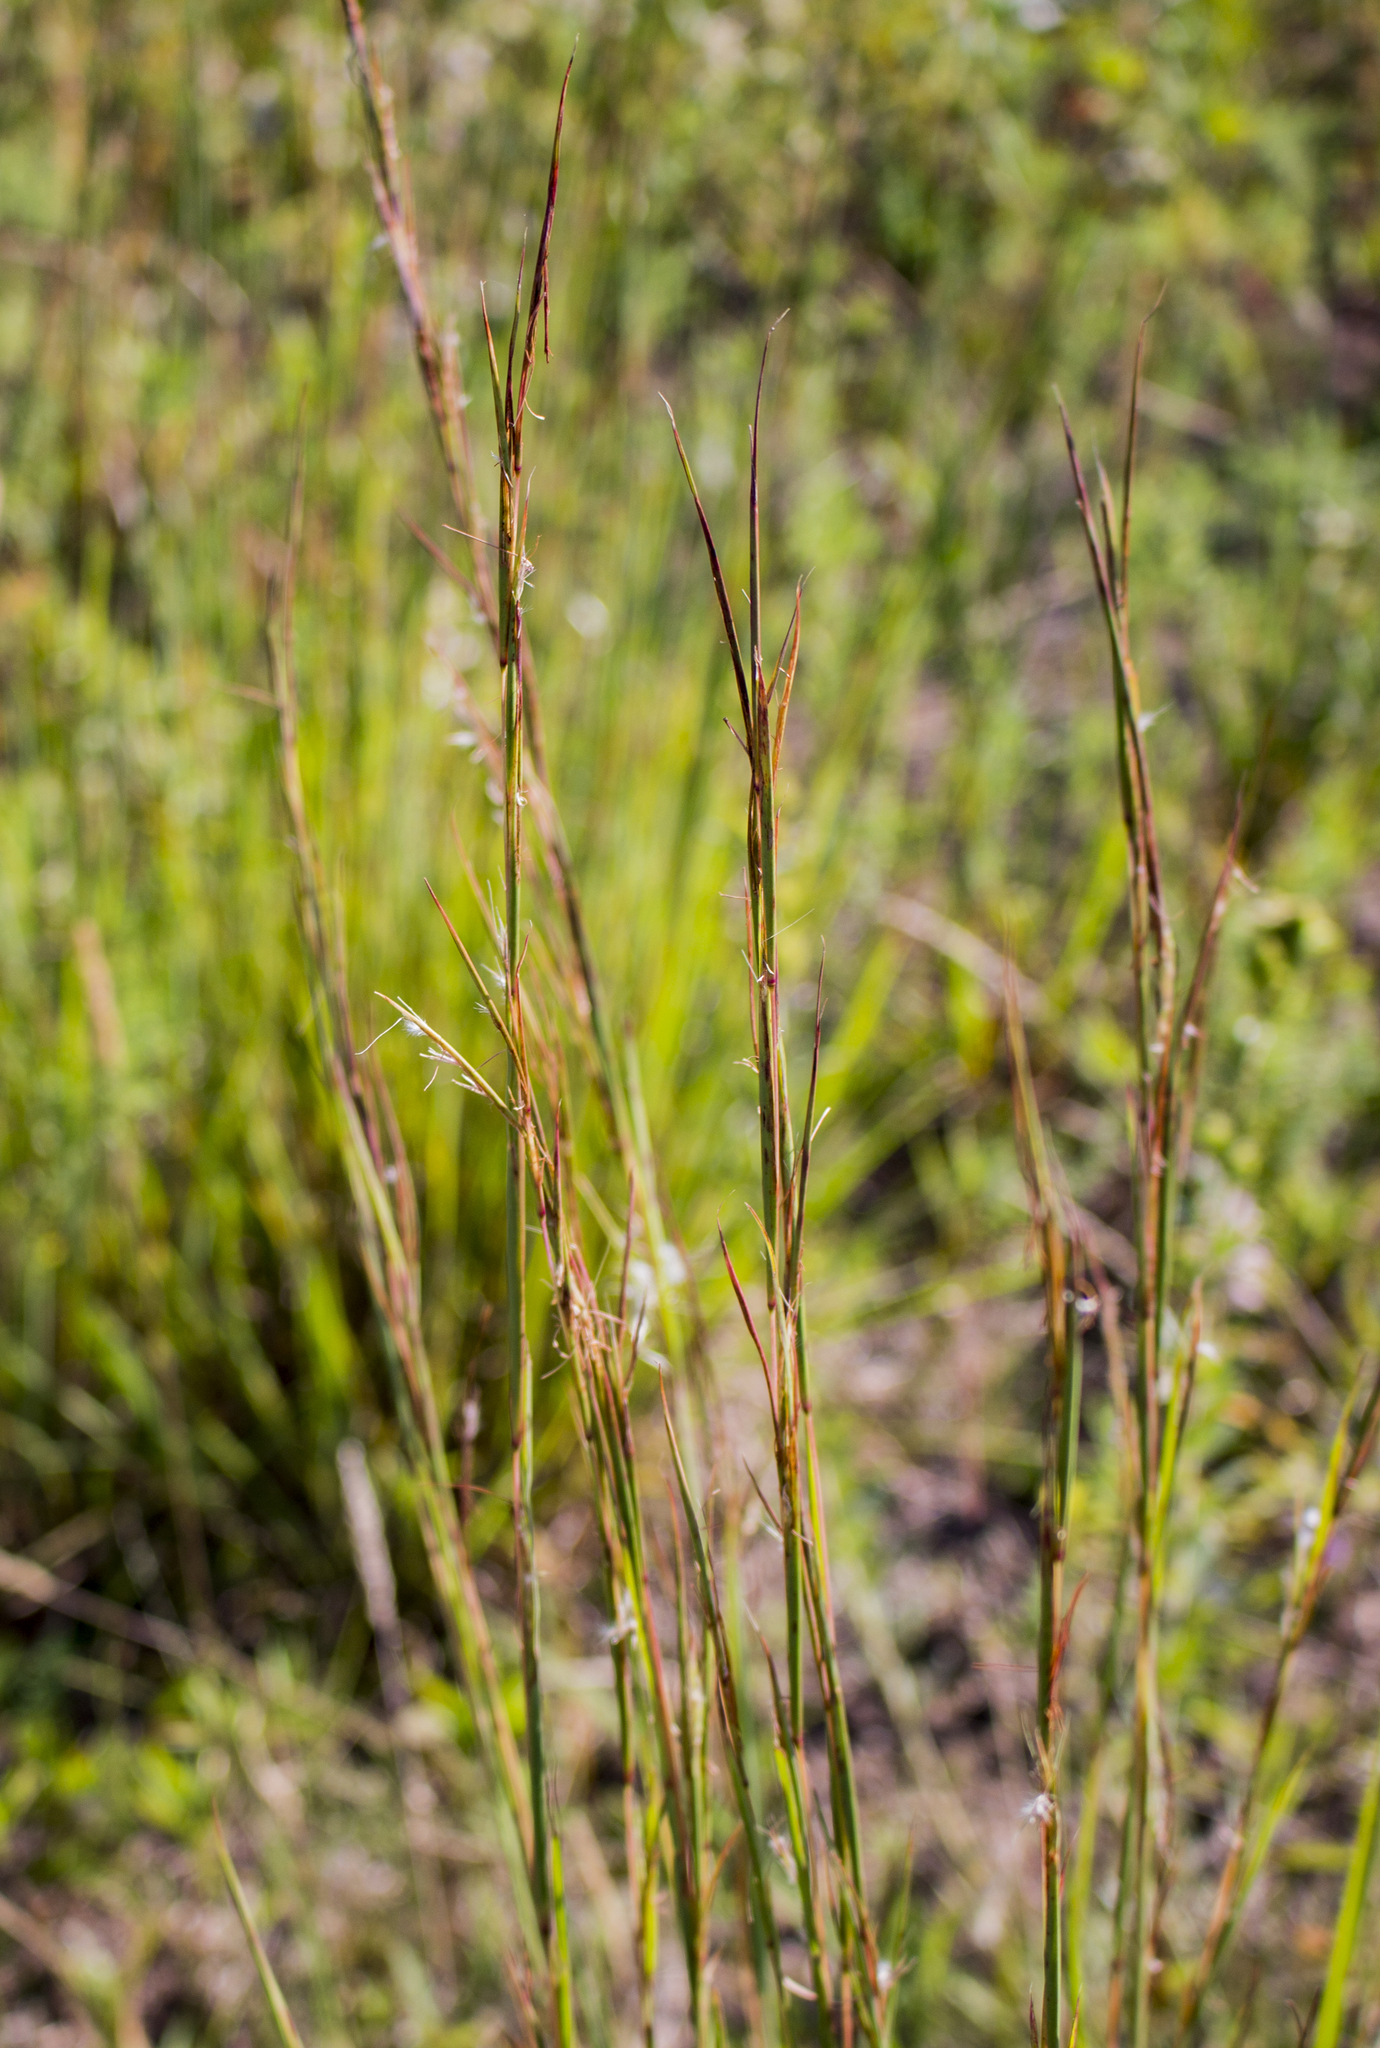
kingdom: Plantae
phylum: Tracheophyta
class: Liliopsida
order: Poales
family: Poaceae
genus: Schizachyrium
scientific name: Schizachyrium scoparium
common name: Little bluestem
